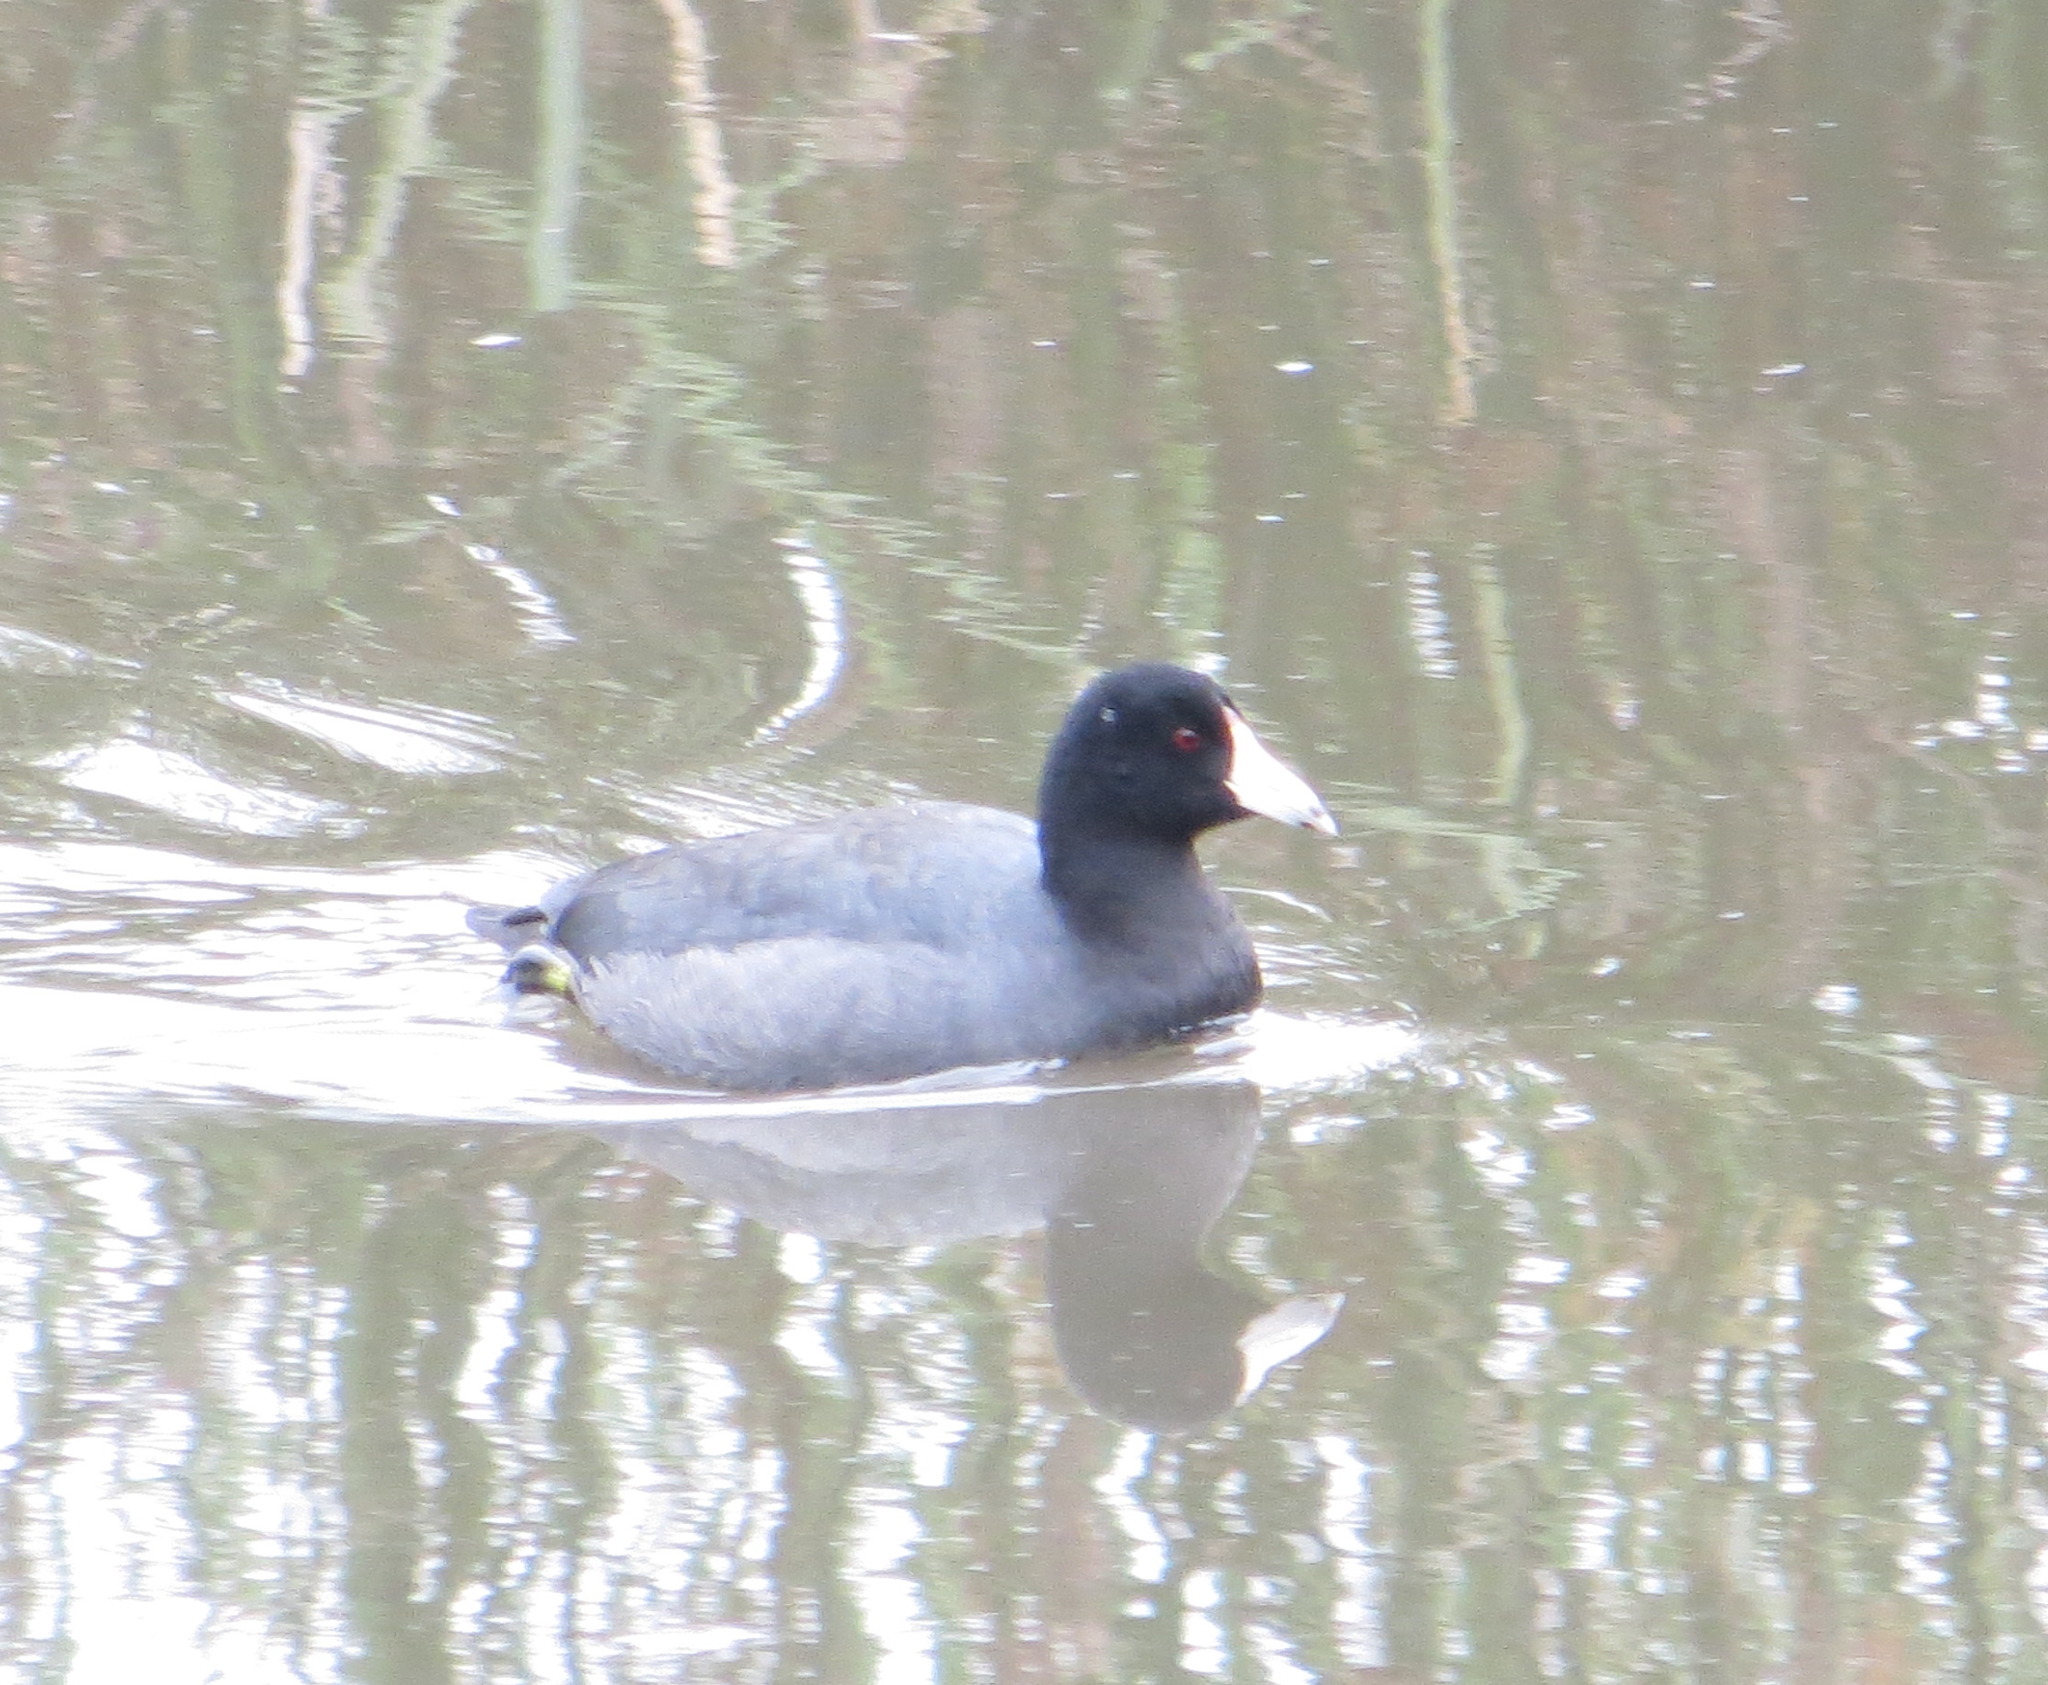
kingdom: Animalia
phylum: Chordata
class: Aves
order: Gruiformes
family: Rallidae
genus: Fulica
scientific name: Fulica americana
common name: American coot
